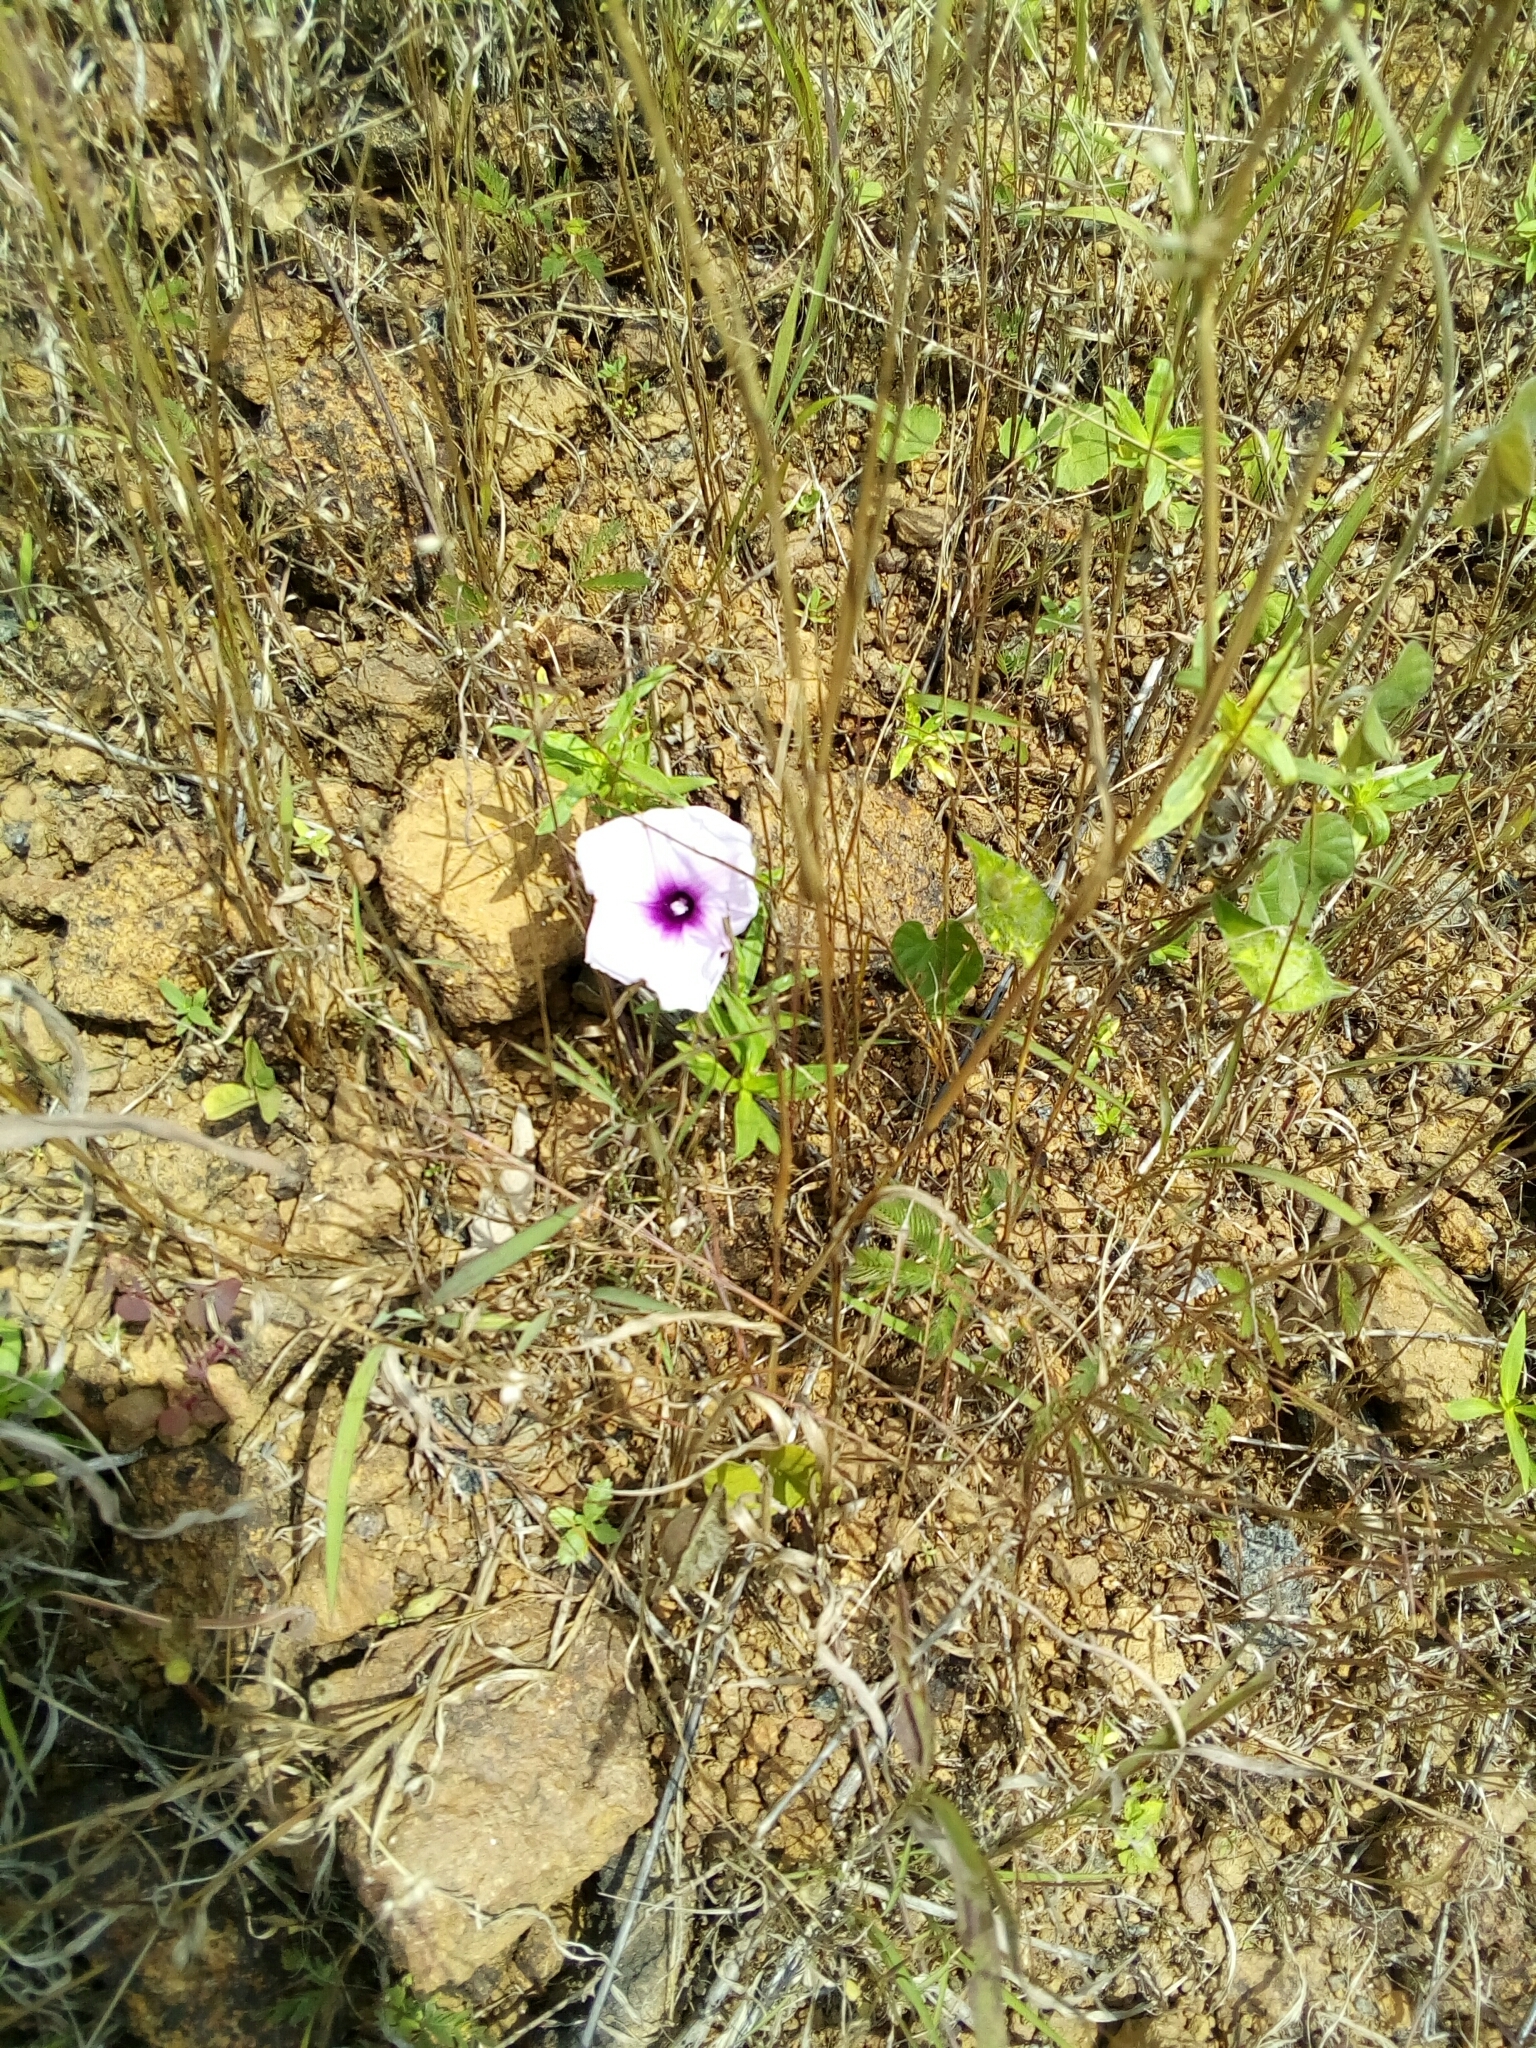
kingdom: Plantae
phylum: Tracheophyta
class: Magnoliopsida
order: Solanales
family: Convolvulaceae
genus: Ipomoea
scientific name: Ipomoea involucrata
